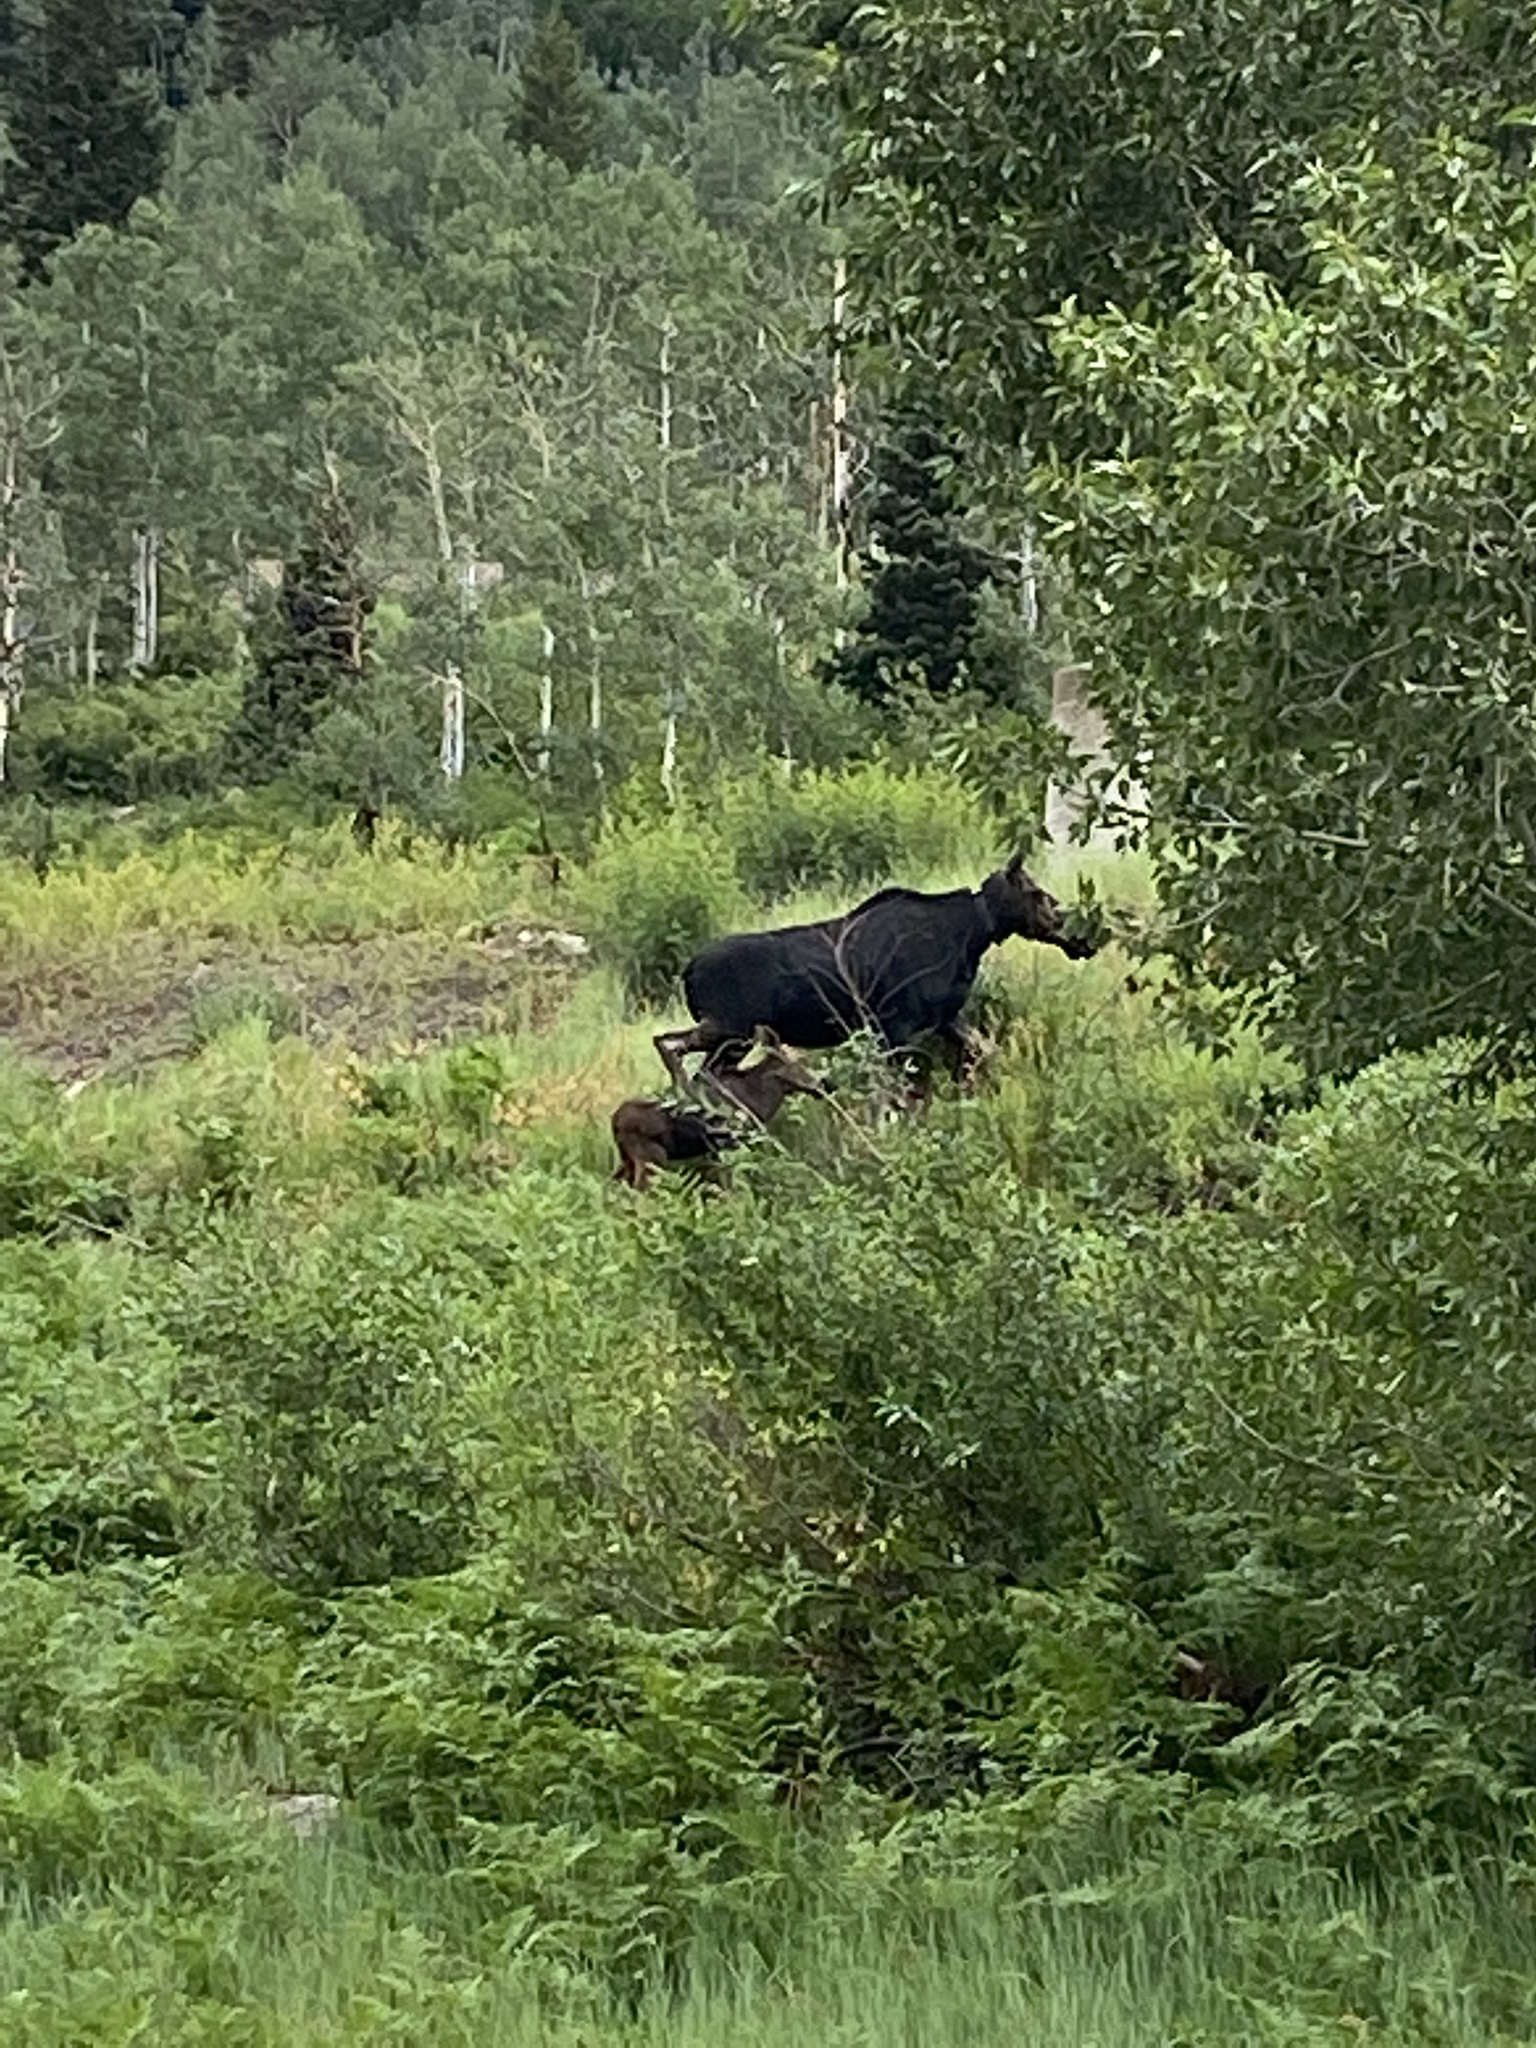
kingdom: Animalia
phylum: Chordata
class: Mammalia
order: Artiodactyla
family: Cervidae
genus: Alces
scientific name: Alces alces
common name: Moose
